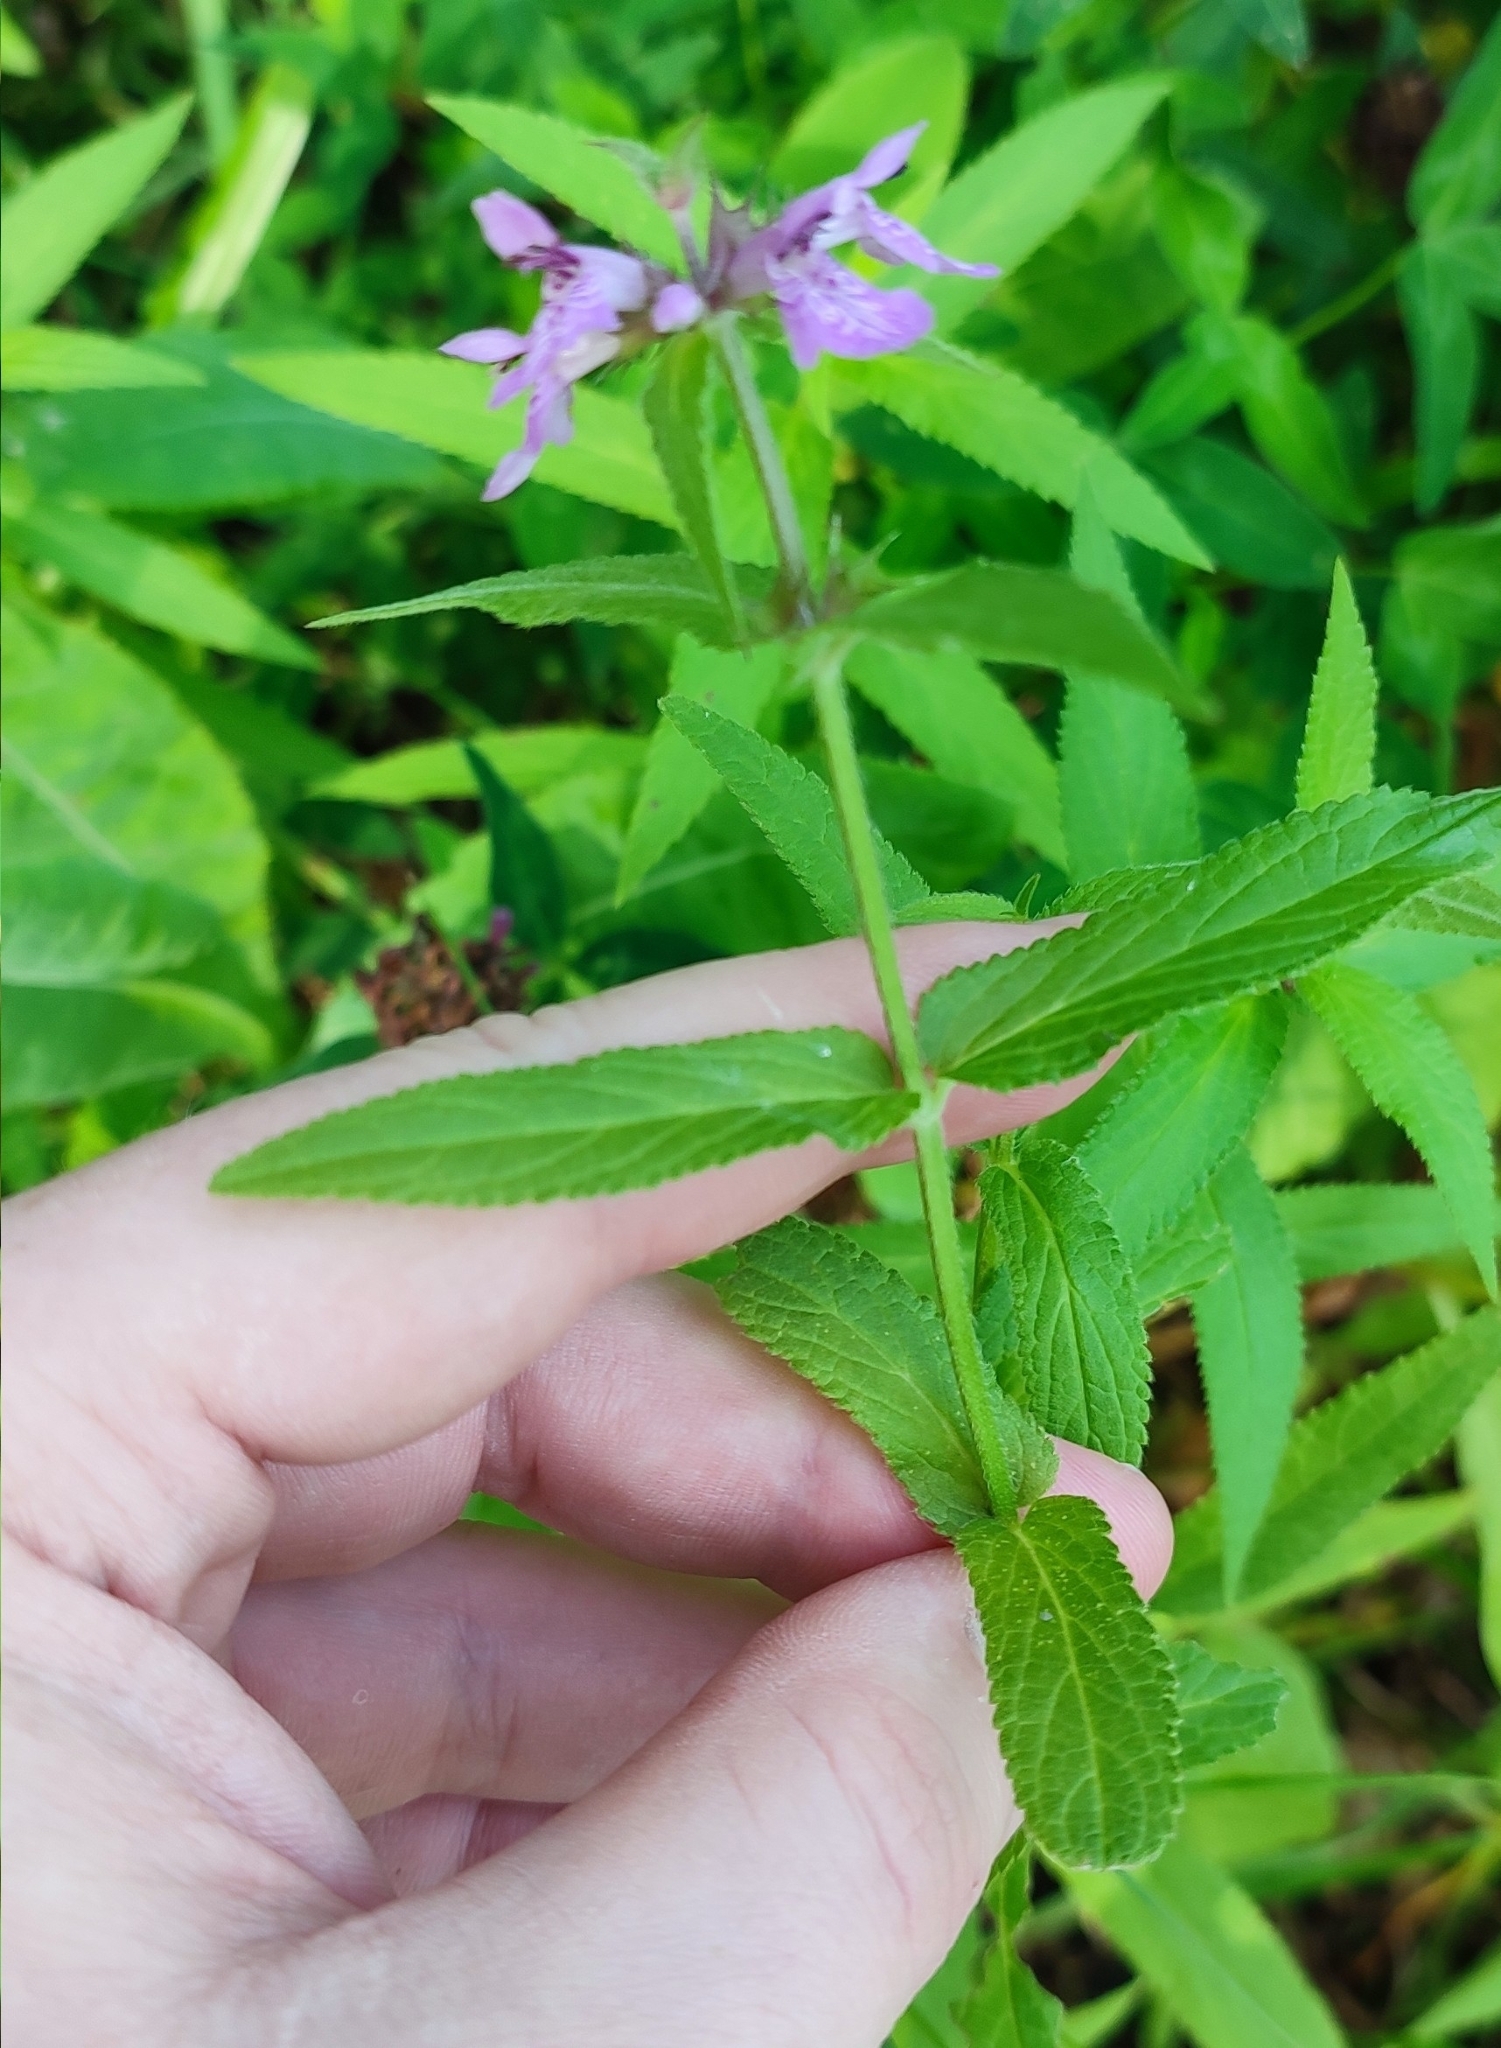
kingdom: Plantae
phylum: Tracheophyta
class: Magnoliopsida
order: Lamiales
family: Lamiaceae
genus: Stachys
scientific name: Stachys palustris
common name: Marsh woundwort
